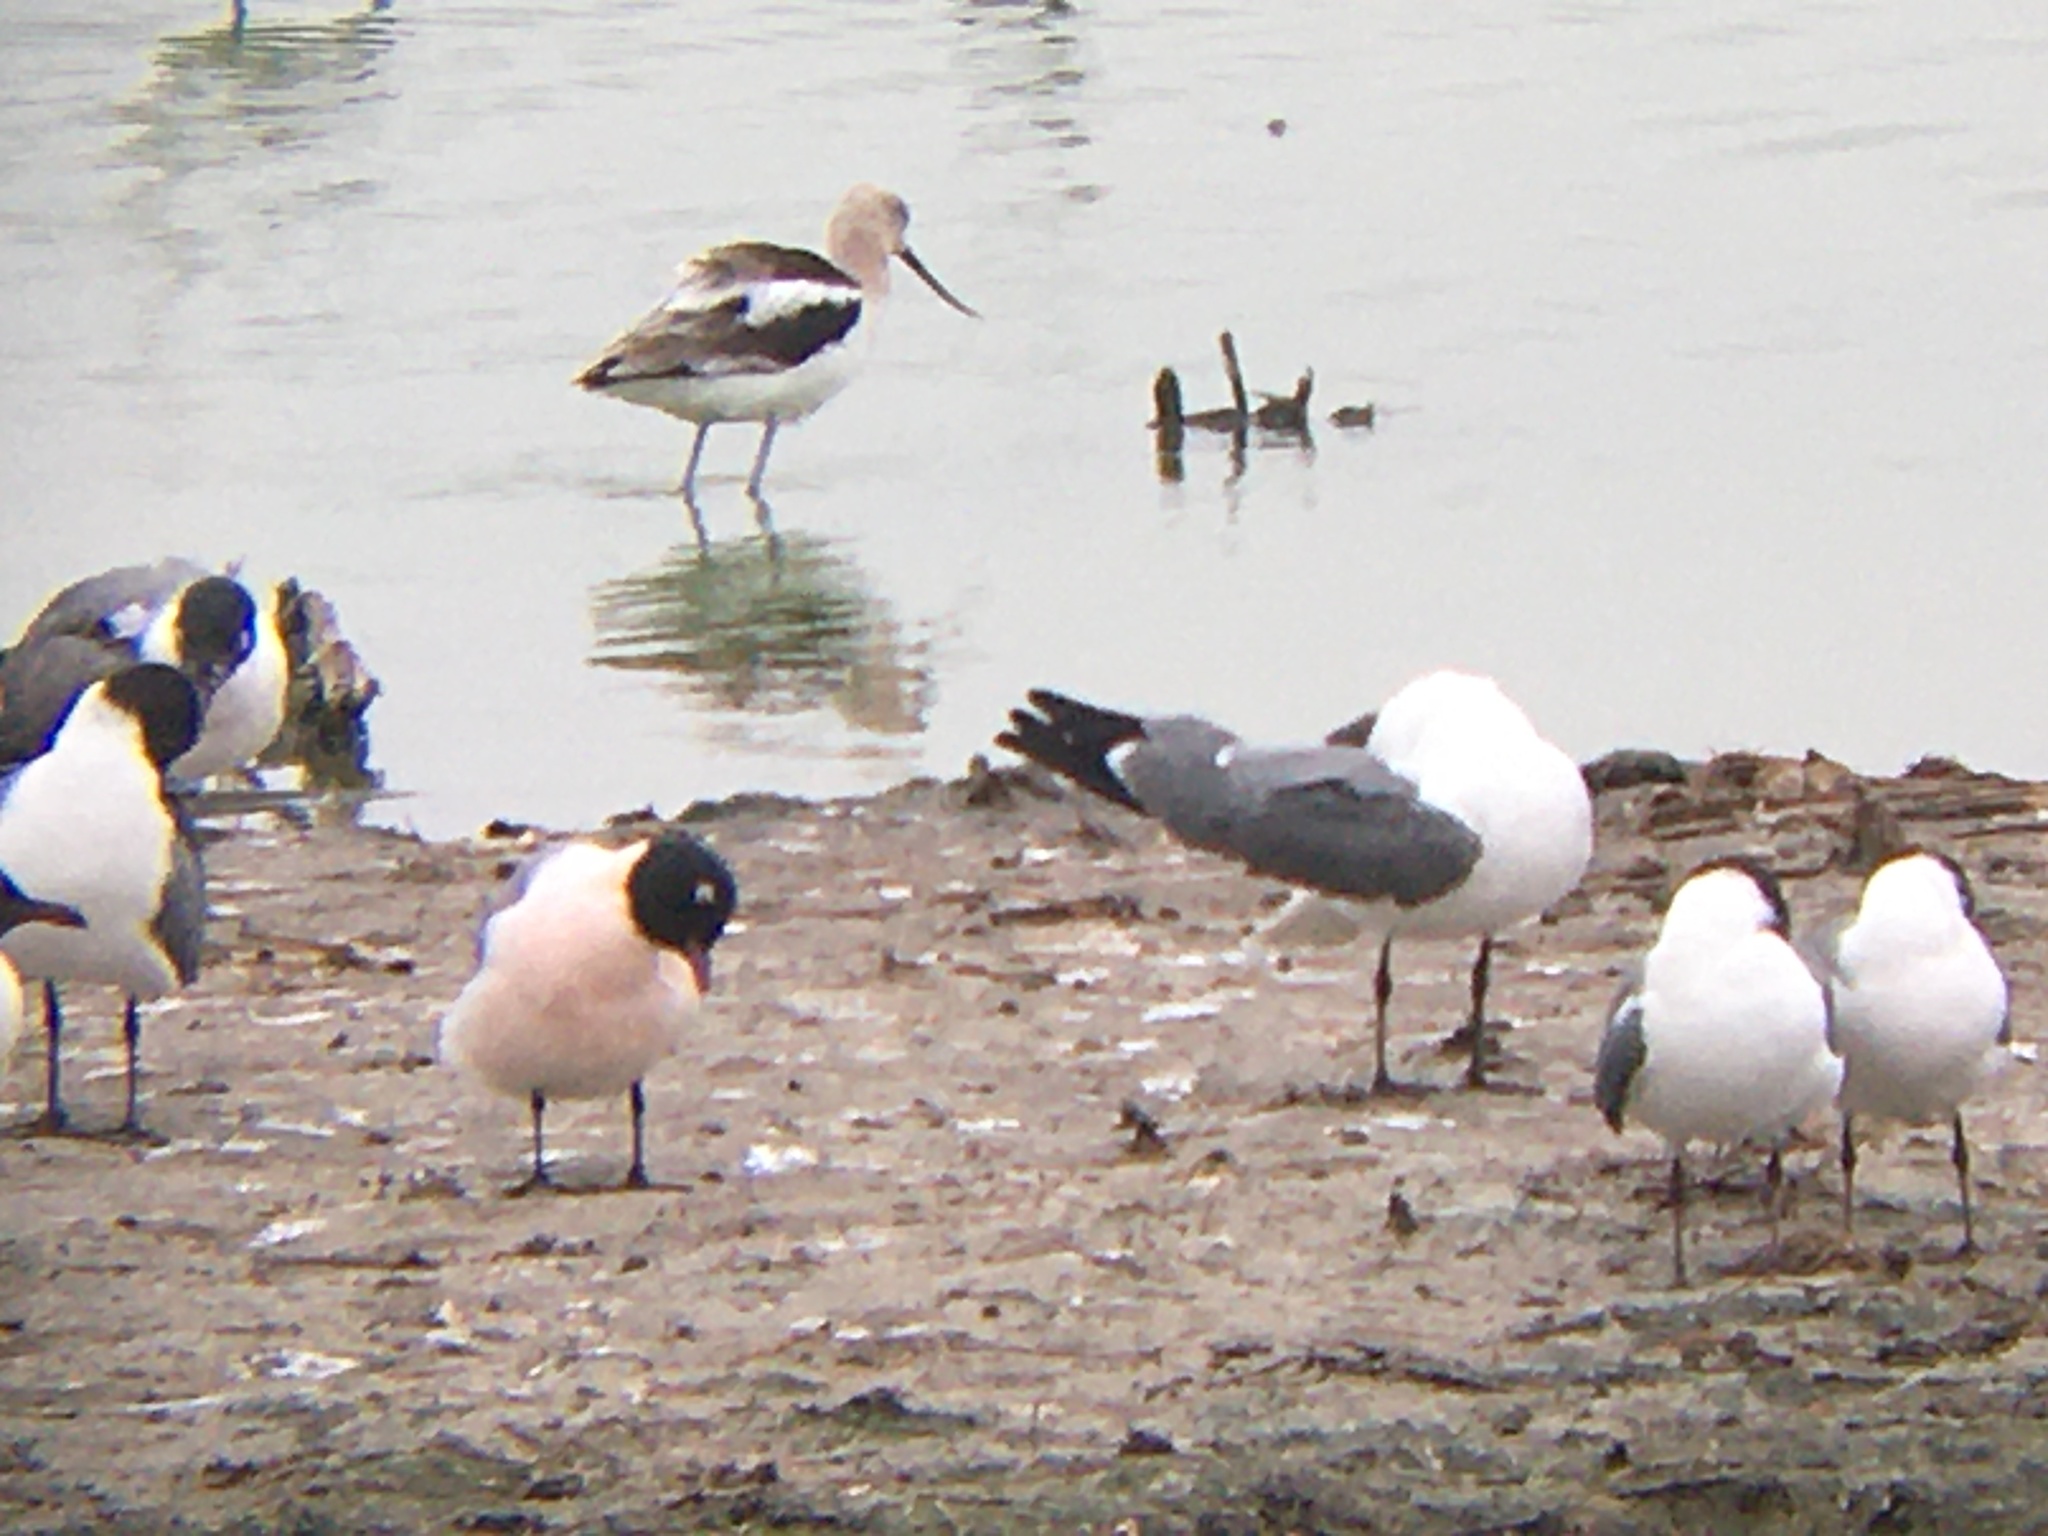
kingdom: Animalia
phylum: Chordata
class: Aves
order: Charadriiformes
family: Laridae
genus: Leucophaeus
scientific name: Leucophaeus pipixcan
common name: Franklin's gull
